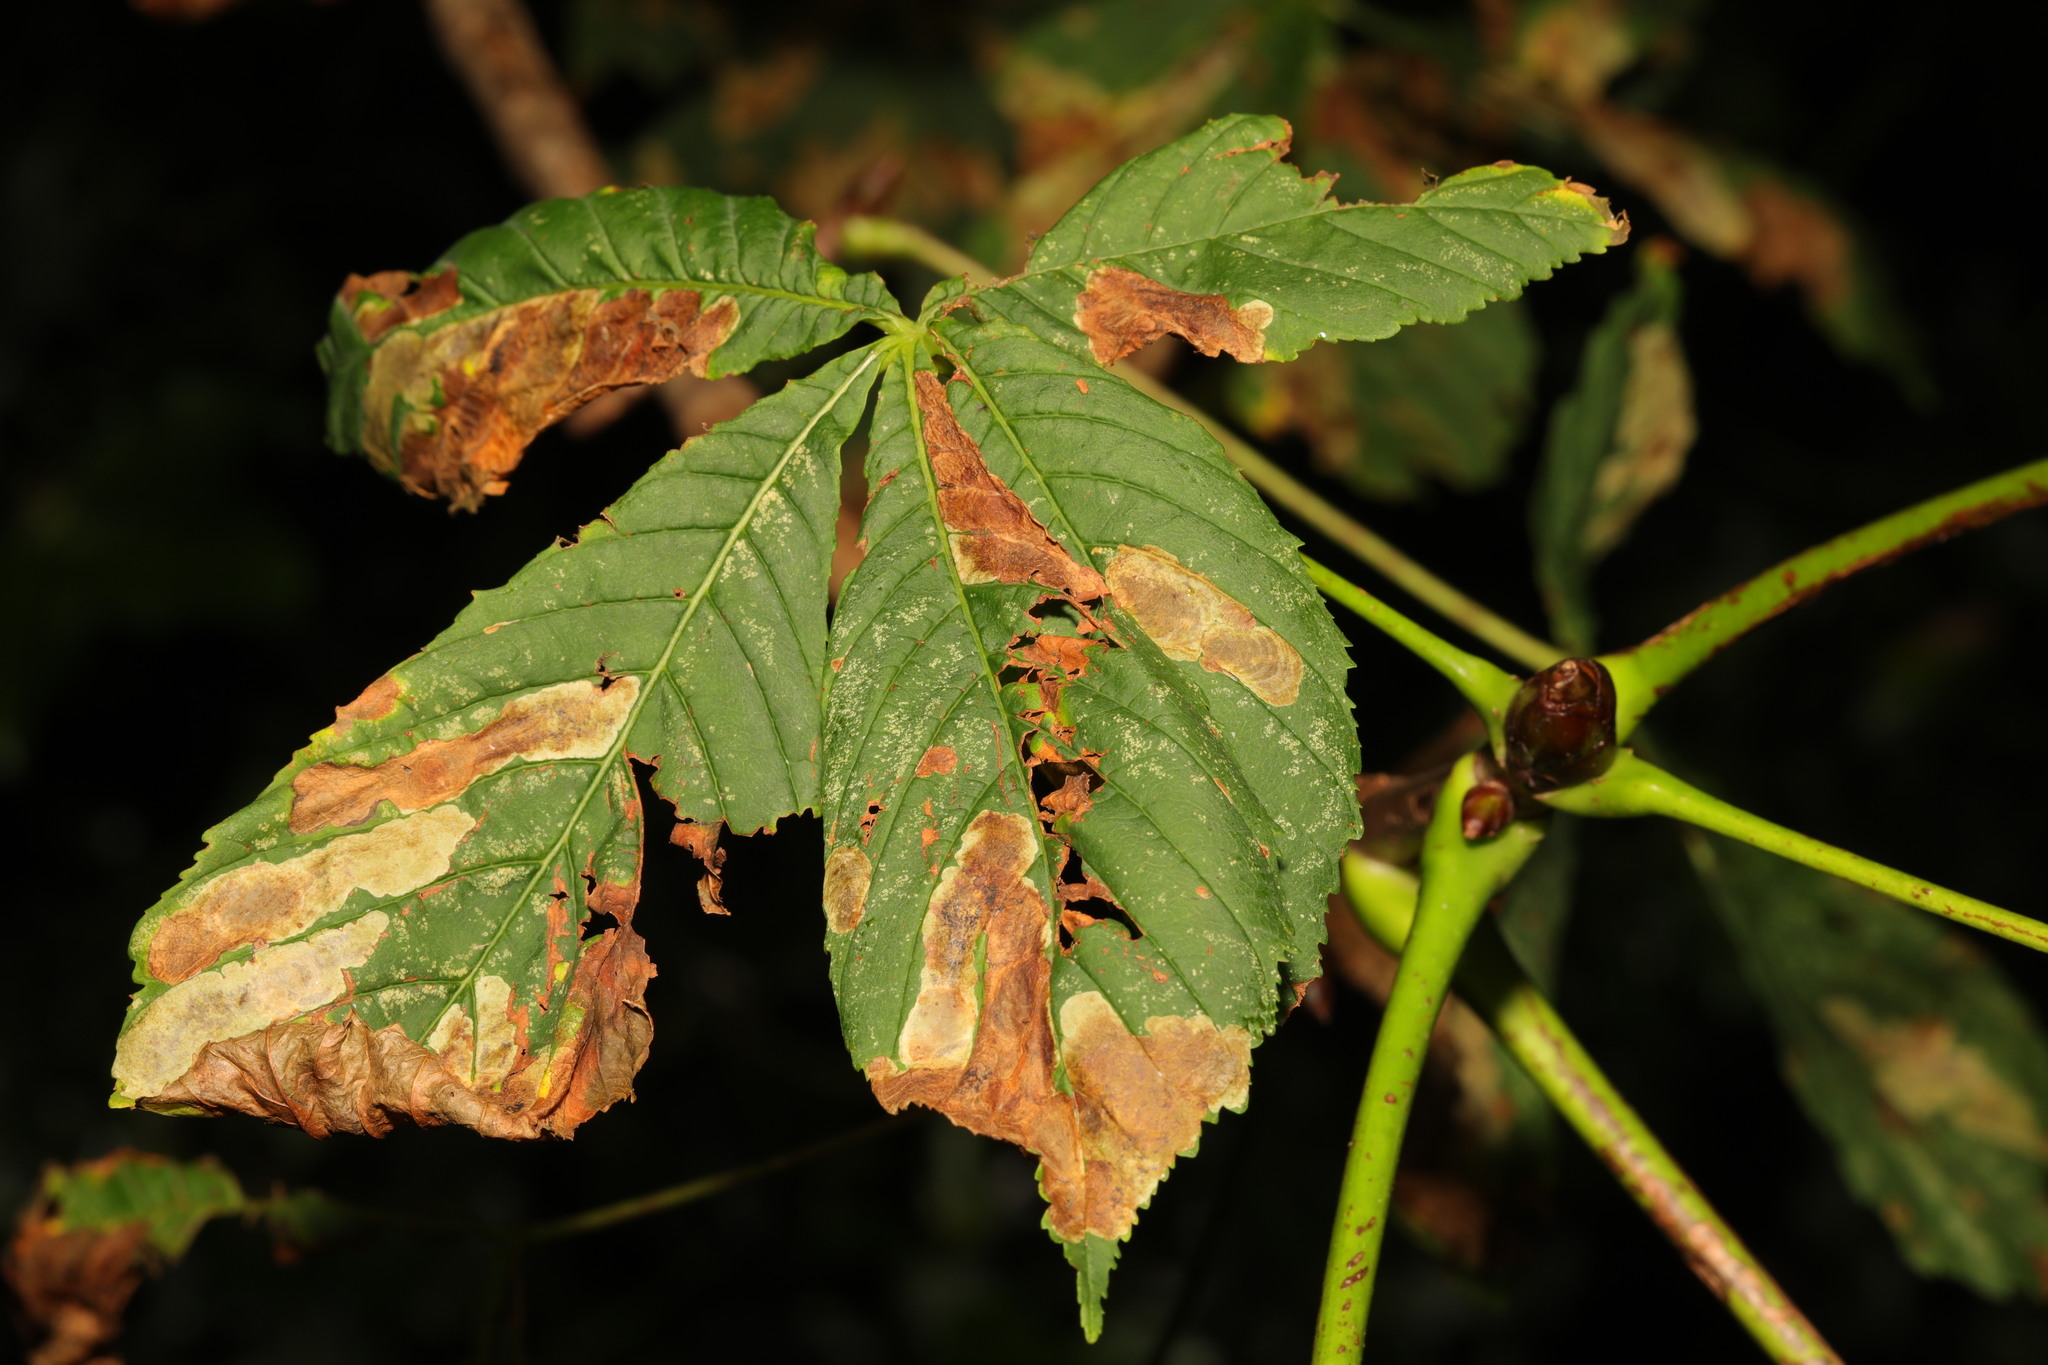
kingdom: Plantae
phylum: Tracheophyta
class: Magnoliopsida
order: Sapindales
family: Sapindaceae
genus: Aesculus
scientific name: Aesculus hippocastanum
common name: Horse-chestnut
